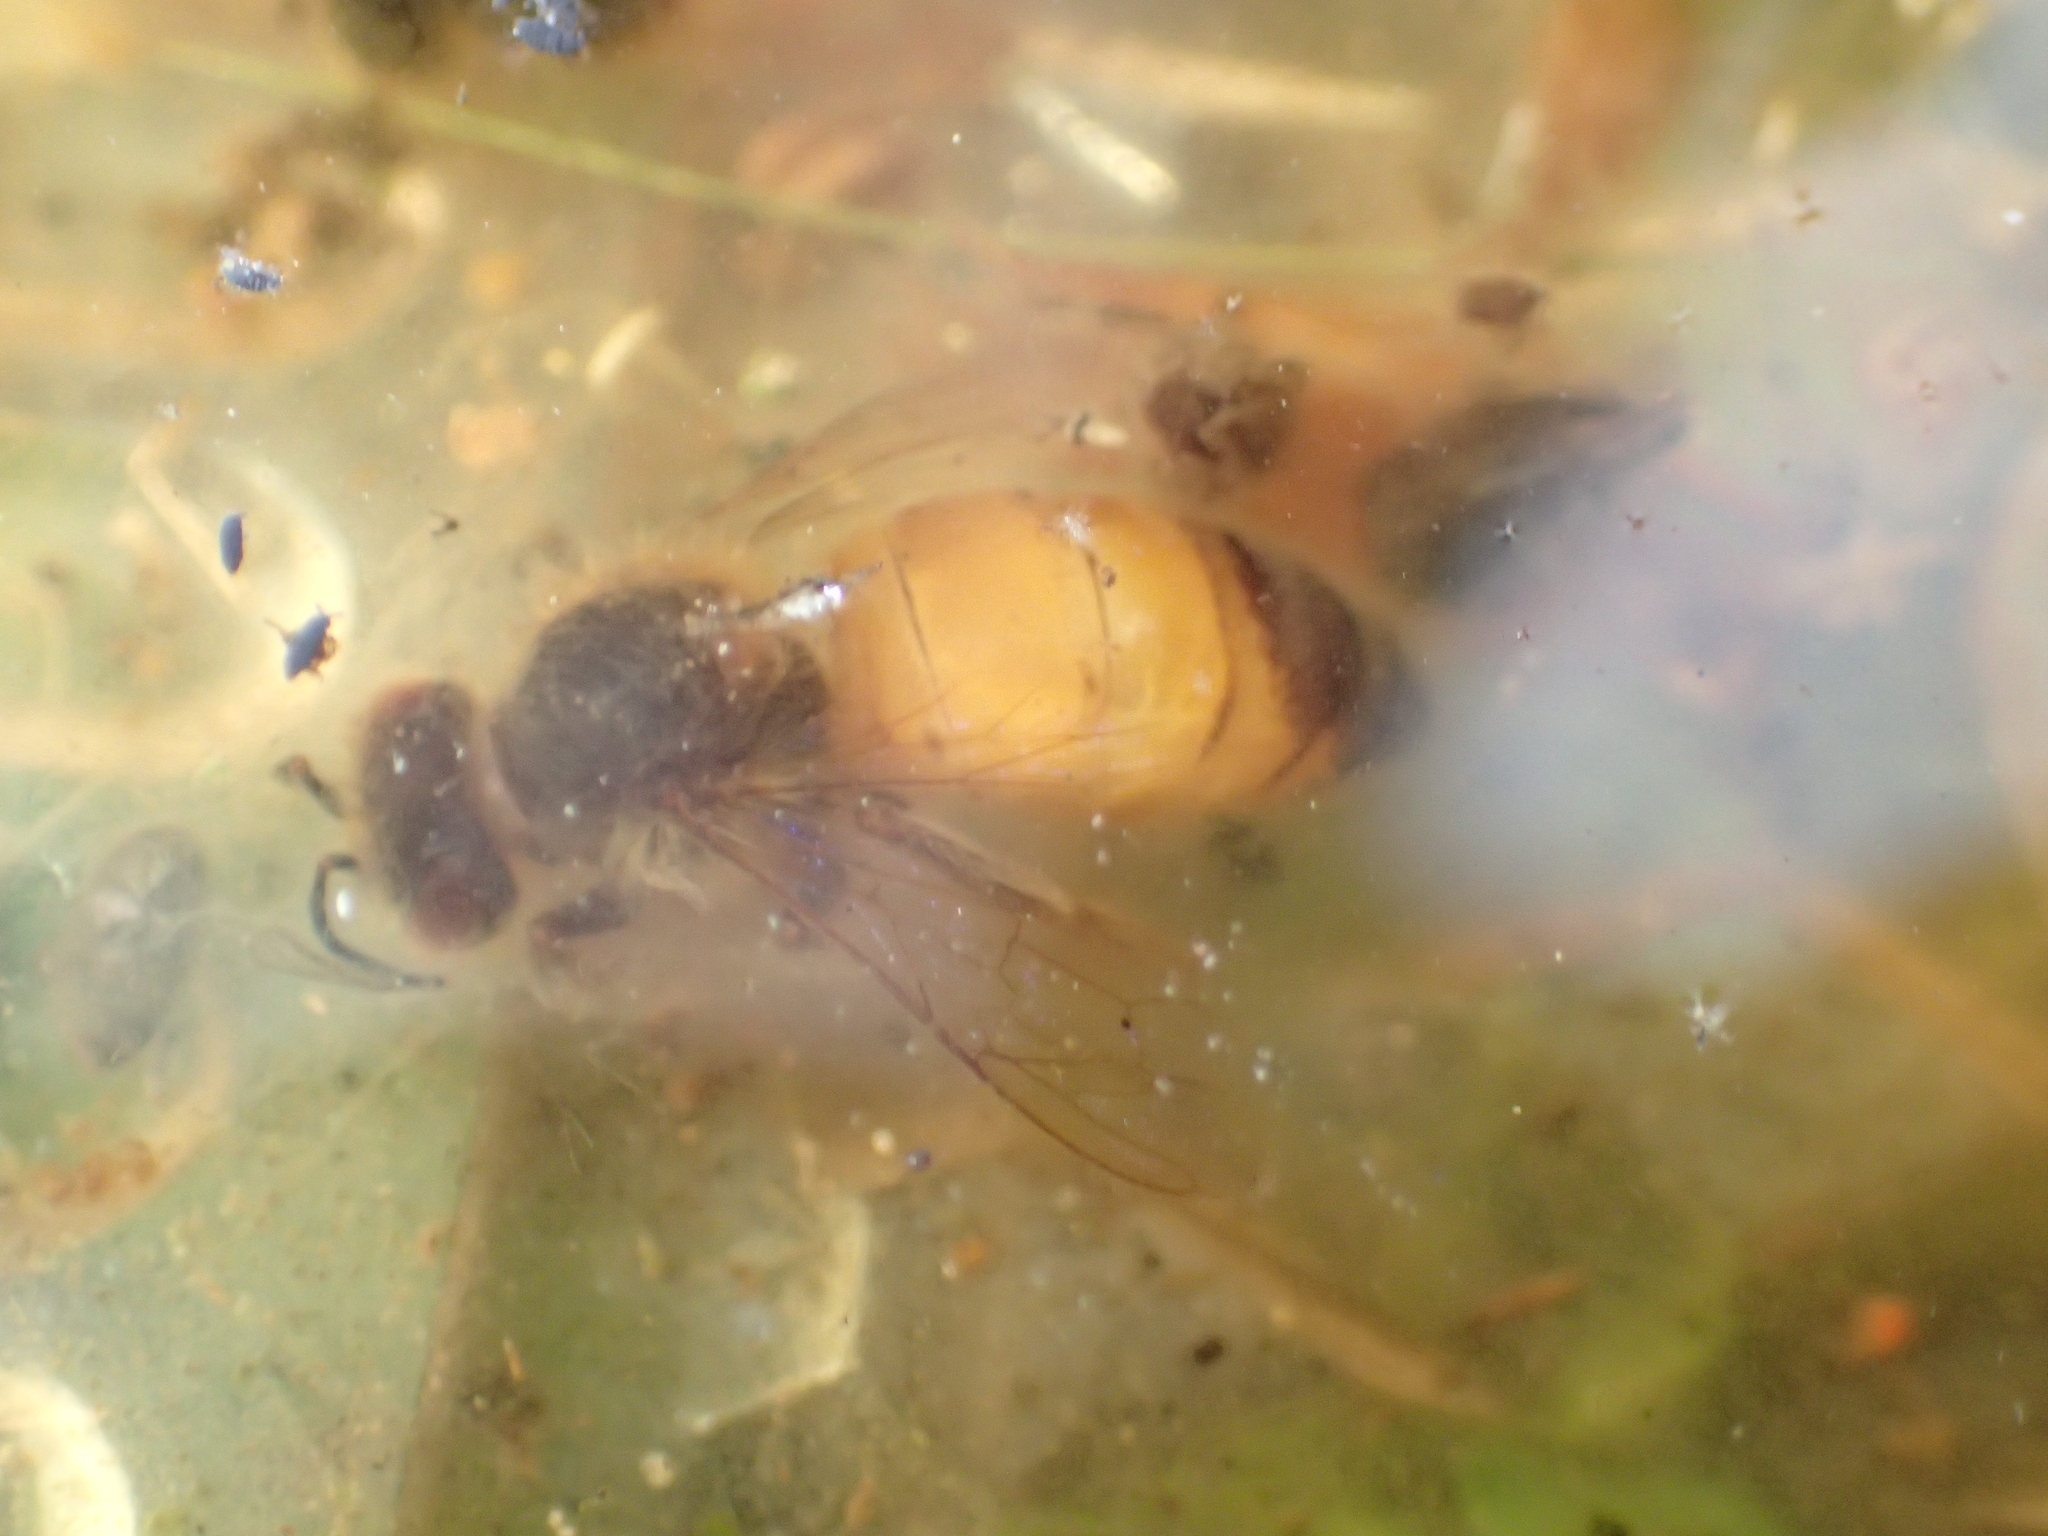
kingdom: Animalia
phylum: Arthropoda
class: Insecta
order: Hymenoptera
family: Apidae
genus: Apis
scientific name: Apis mellifera
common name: Honey bee
